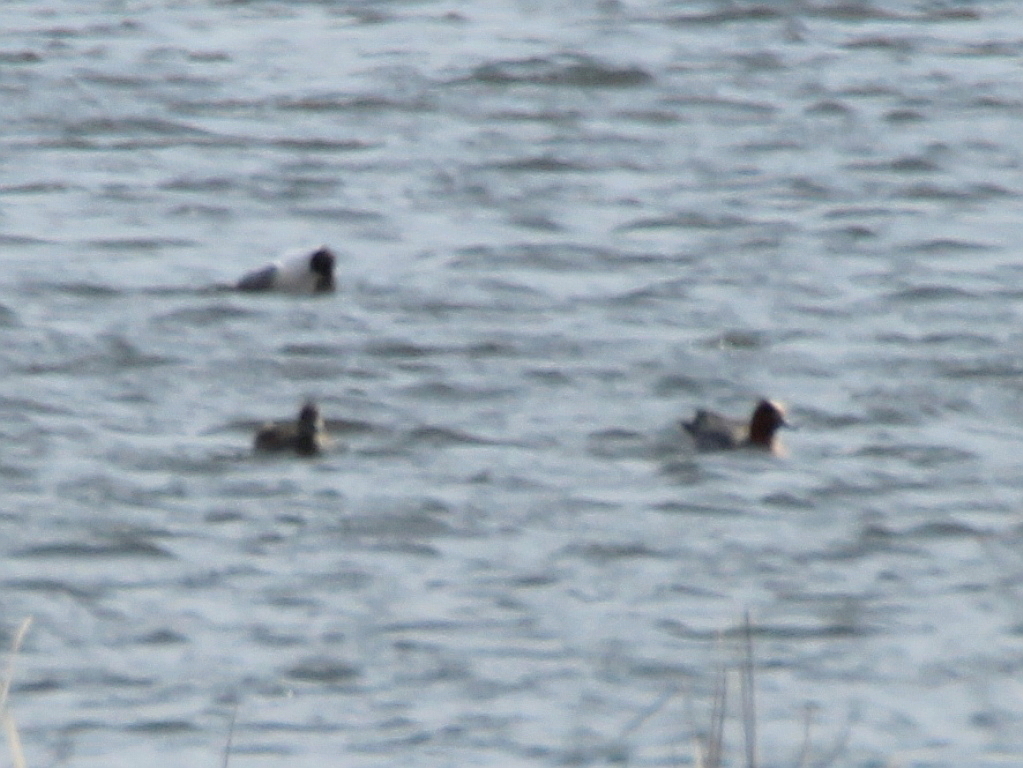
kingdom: Animalia
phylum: Chordata
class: Aves
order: Anseriformes
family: Anatidae
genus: Mareca
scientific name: Mareca penelope
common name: Eurasian wigeon
